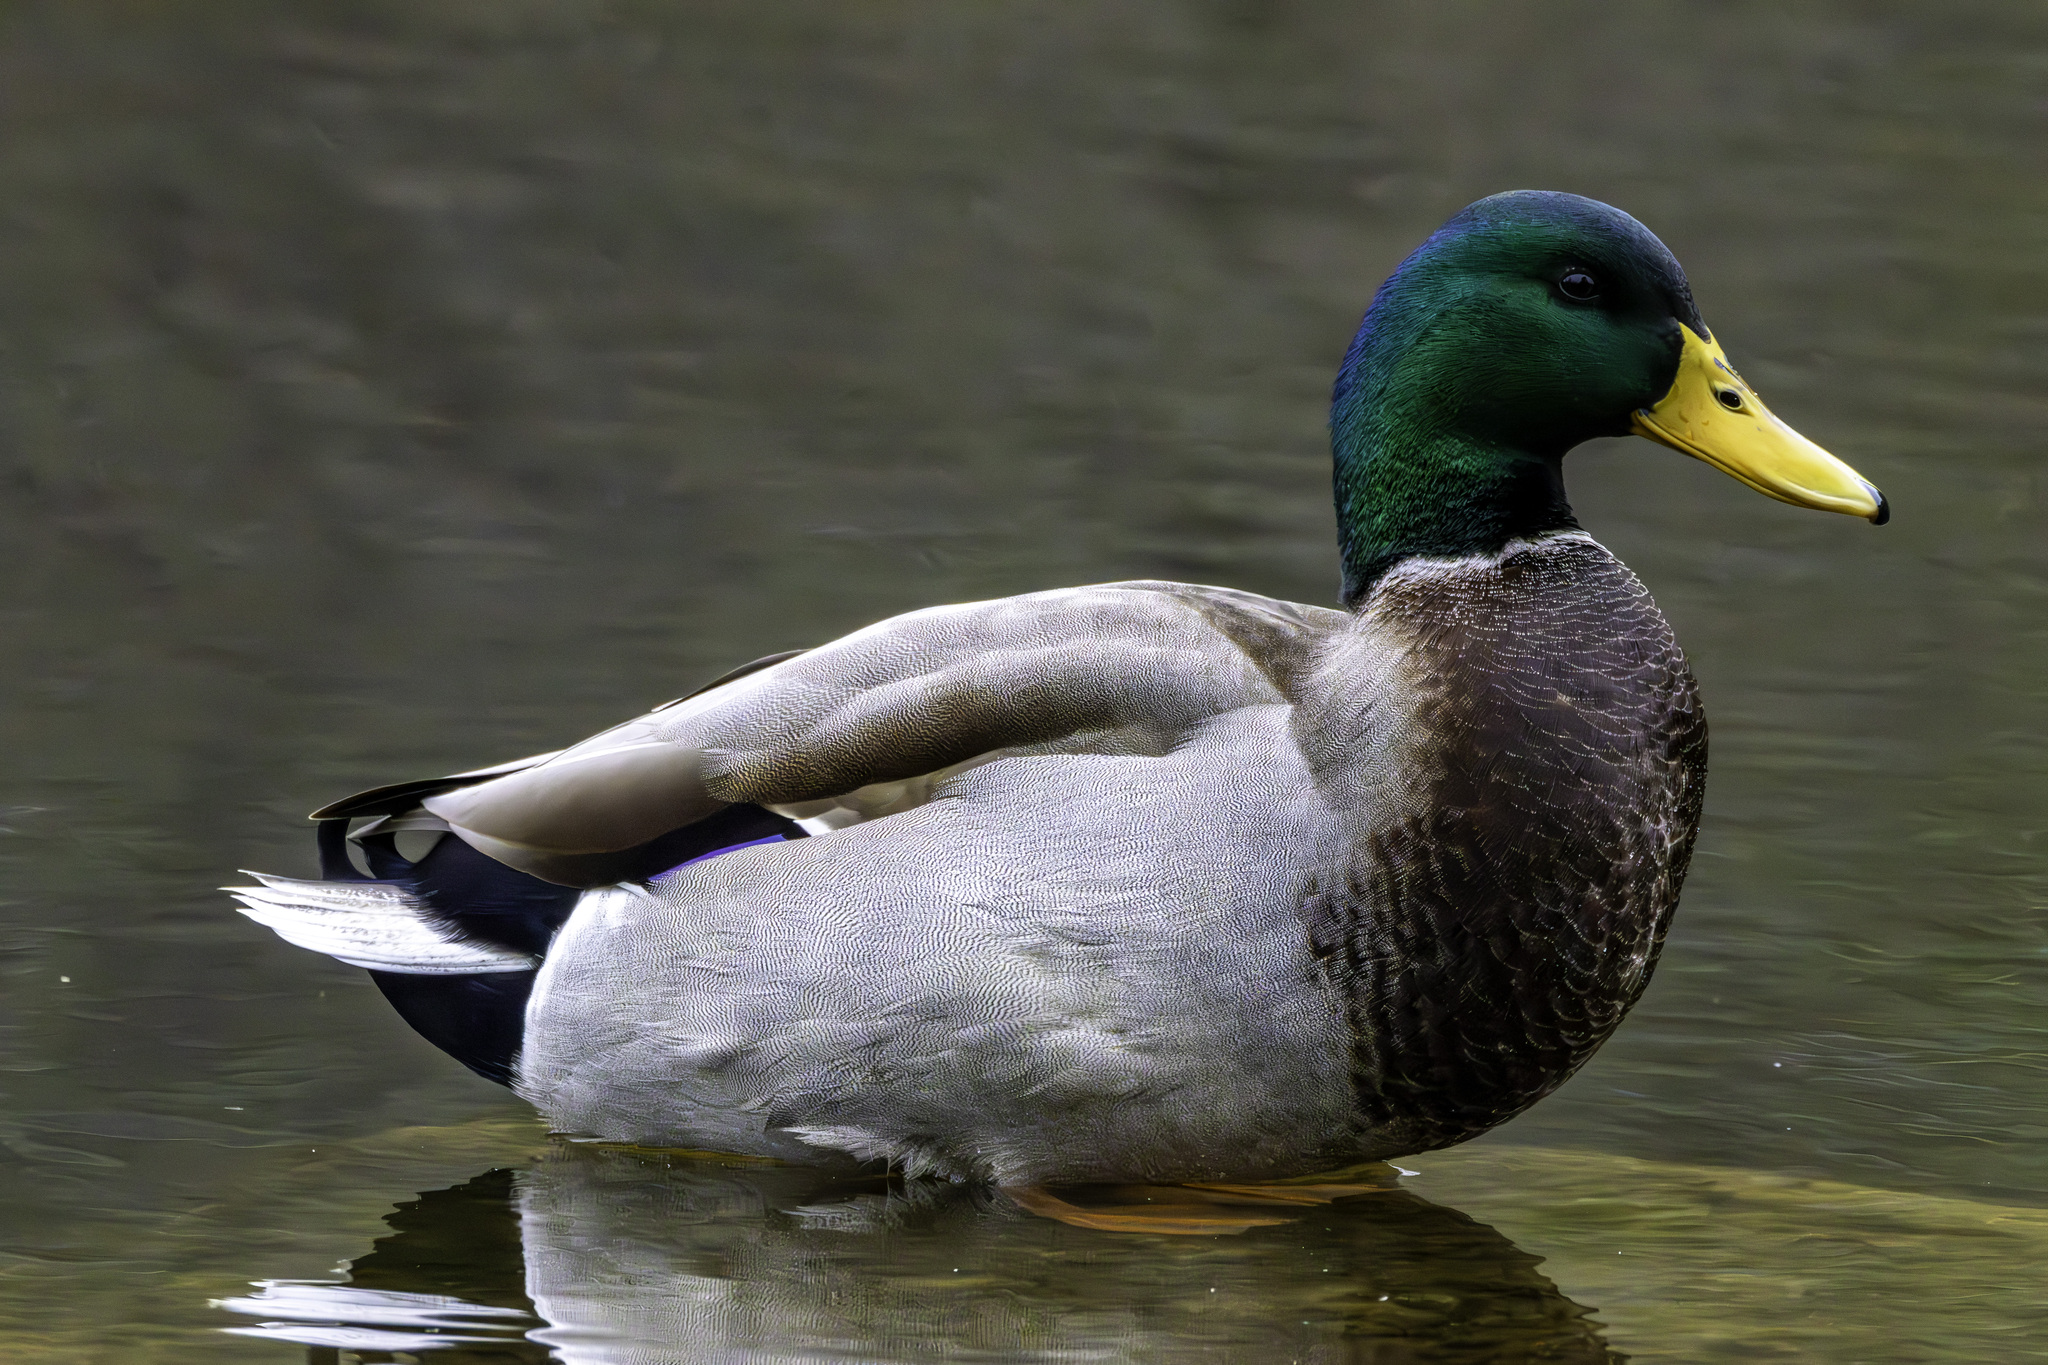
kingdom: Animalia
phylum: Chordata
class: Aves
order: Anseriformes
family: Anatidae
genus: Anas
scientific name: Anas platyrhynchos
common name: Mallard
